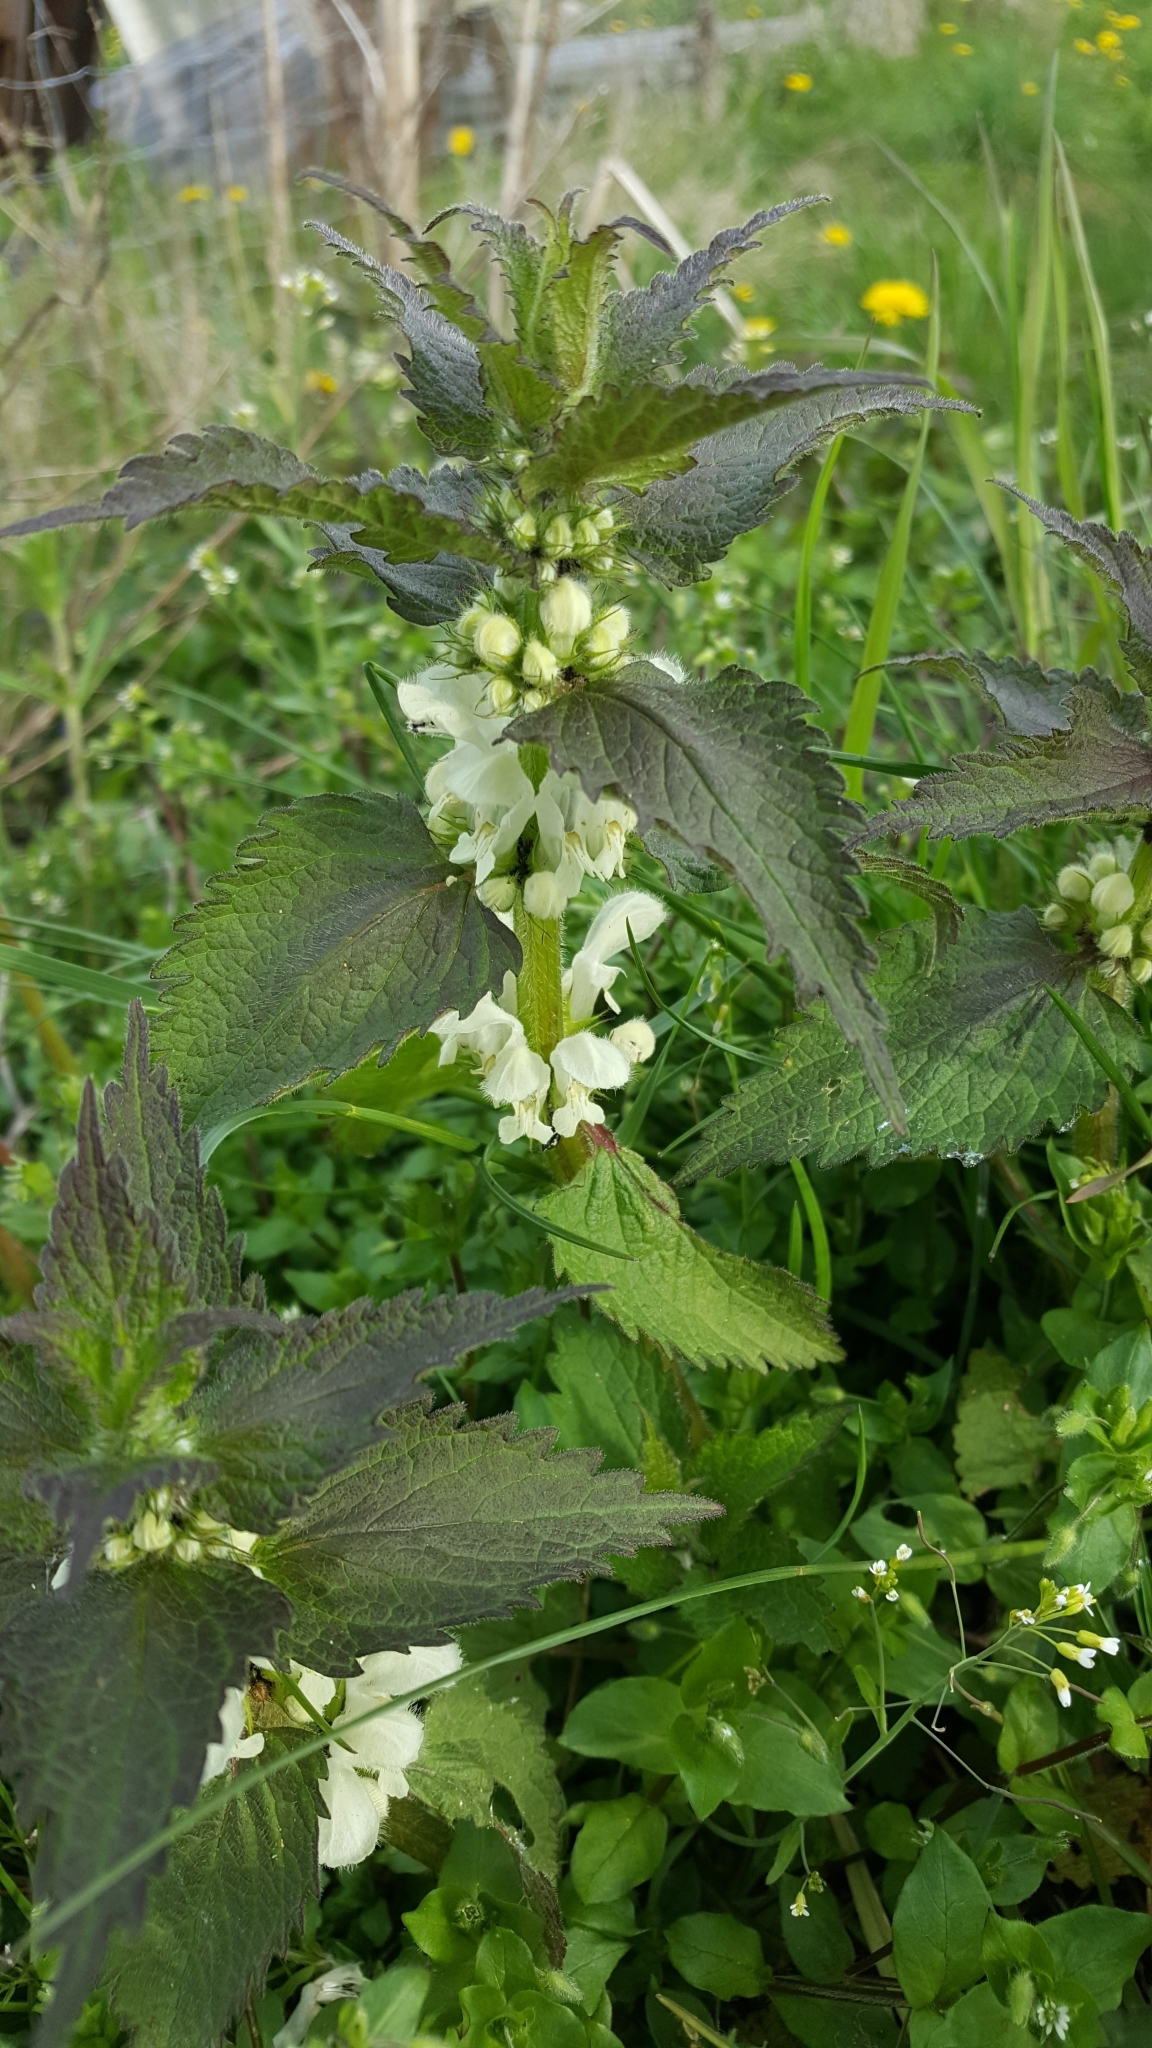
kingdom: Plantae
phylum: Tracheophyta
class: Magnoliopsida
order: Lamiales
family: Lamiaceae
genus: Lamium
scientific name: Lamium album
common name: White dead-nettle
